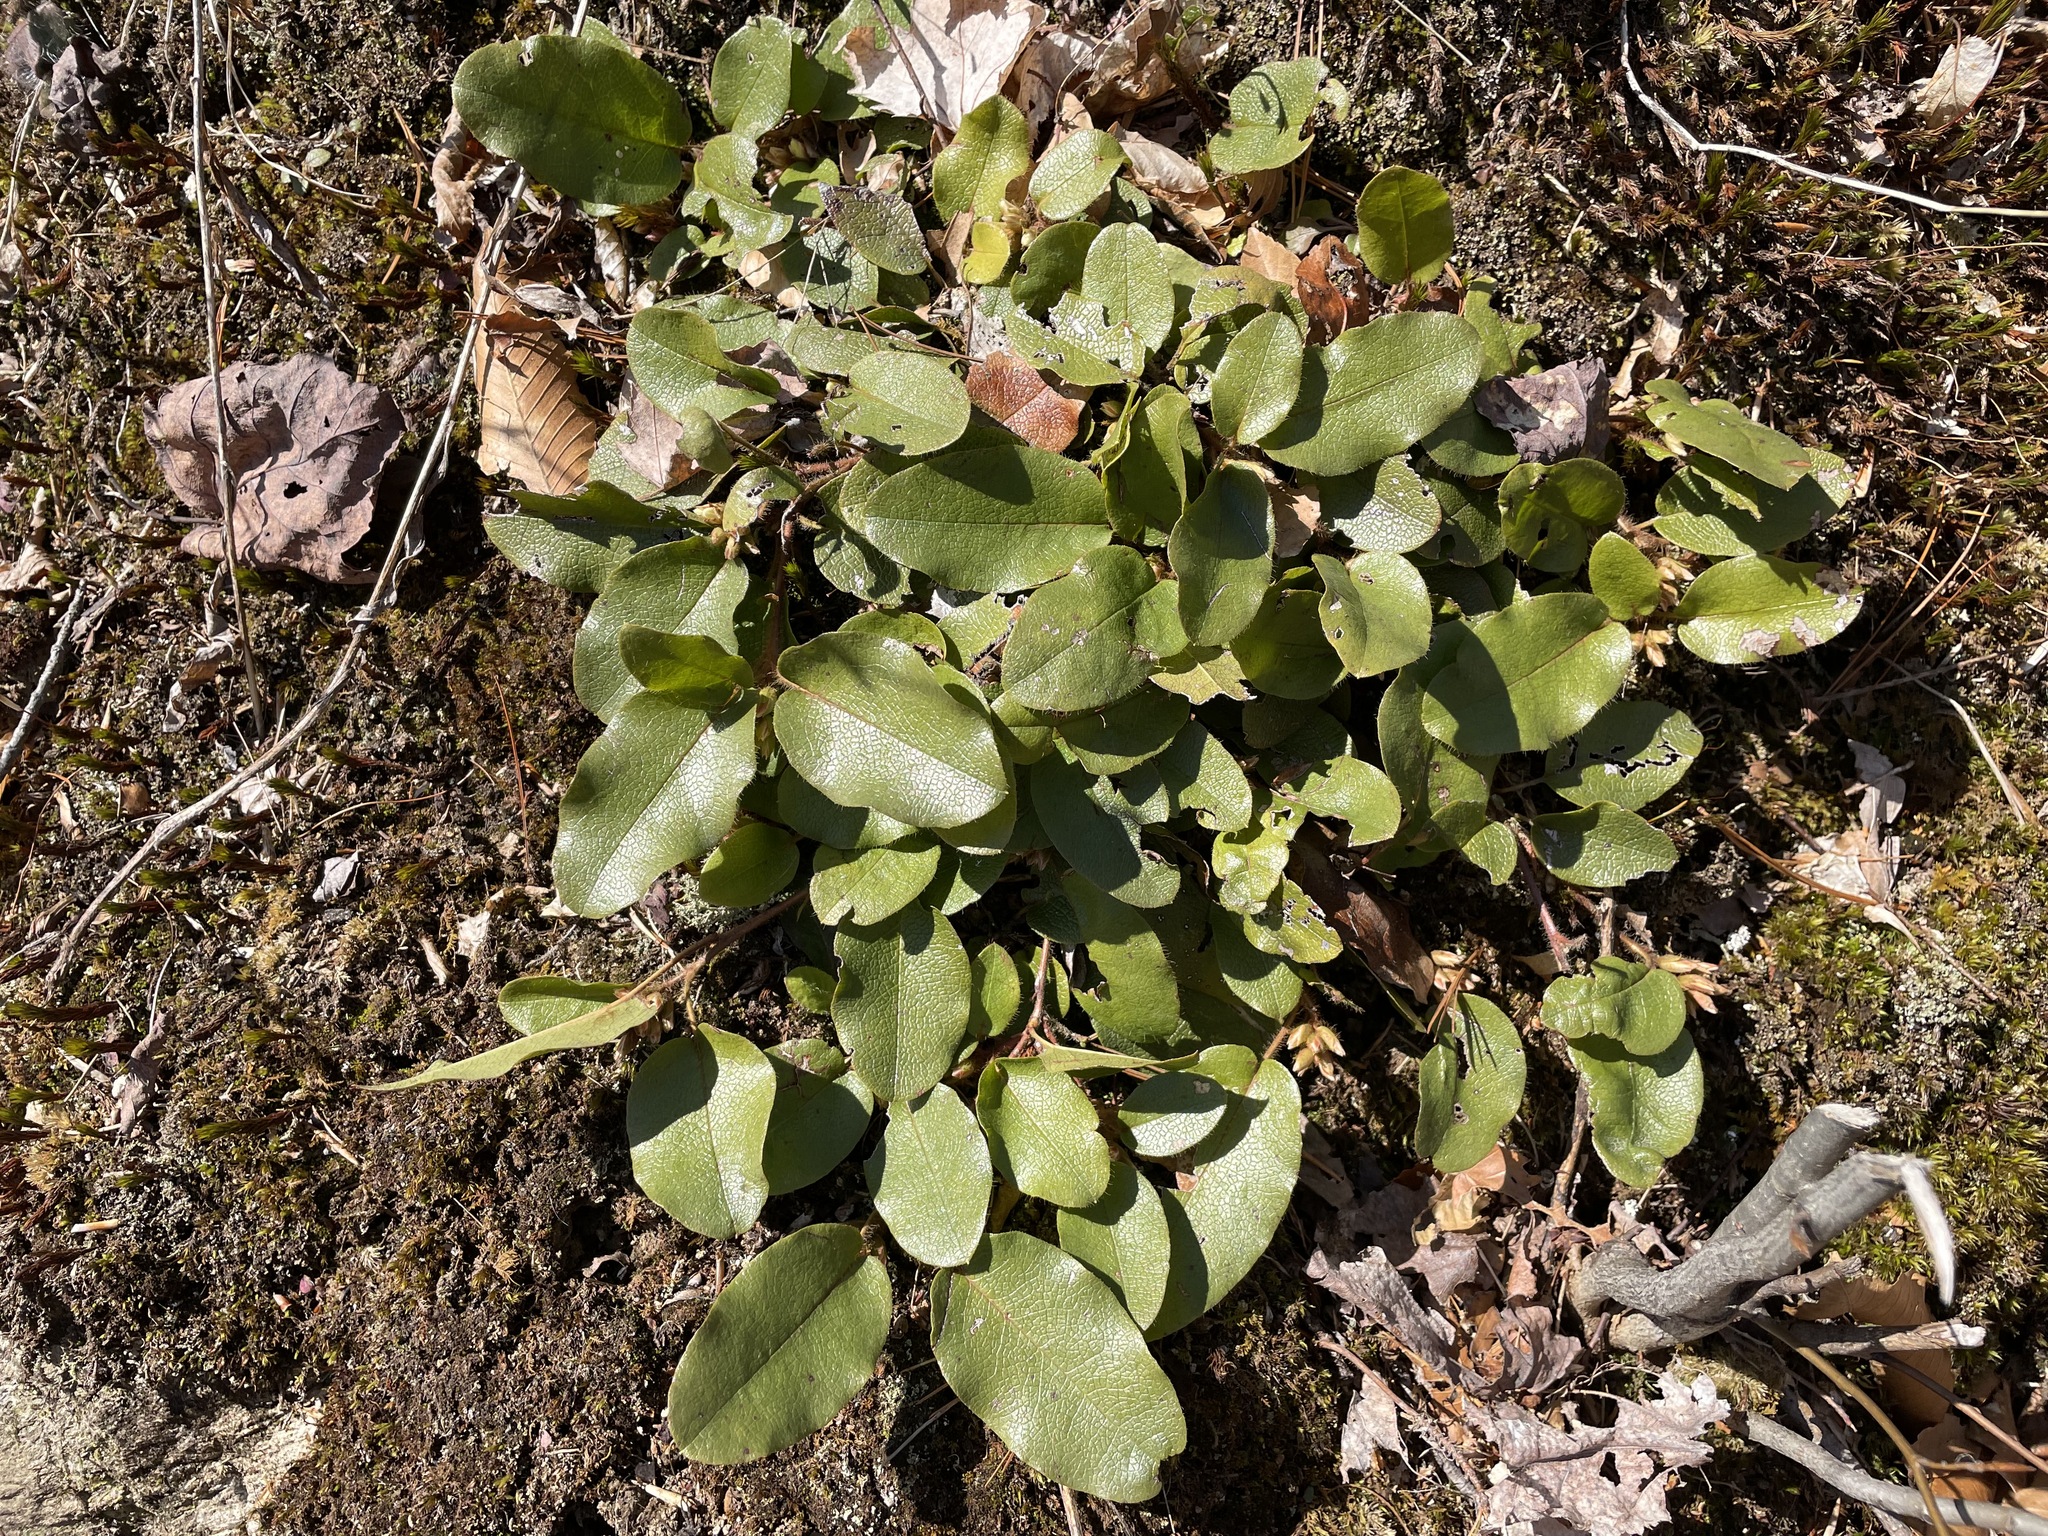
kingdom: Plantae
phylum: Tracheophyta
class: Magnoliopsida
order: Ericales
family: Ericaceae
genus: Epigaea
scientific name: Epigaea repens
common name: Gravelroot
